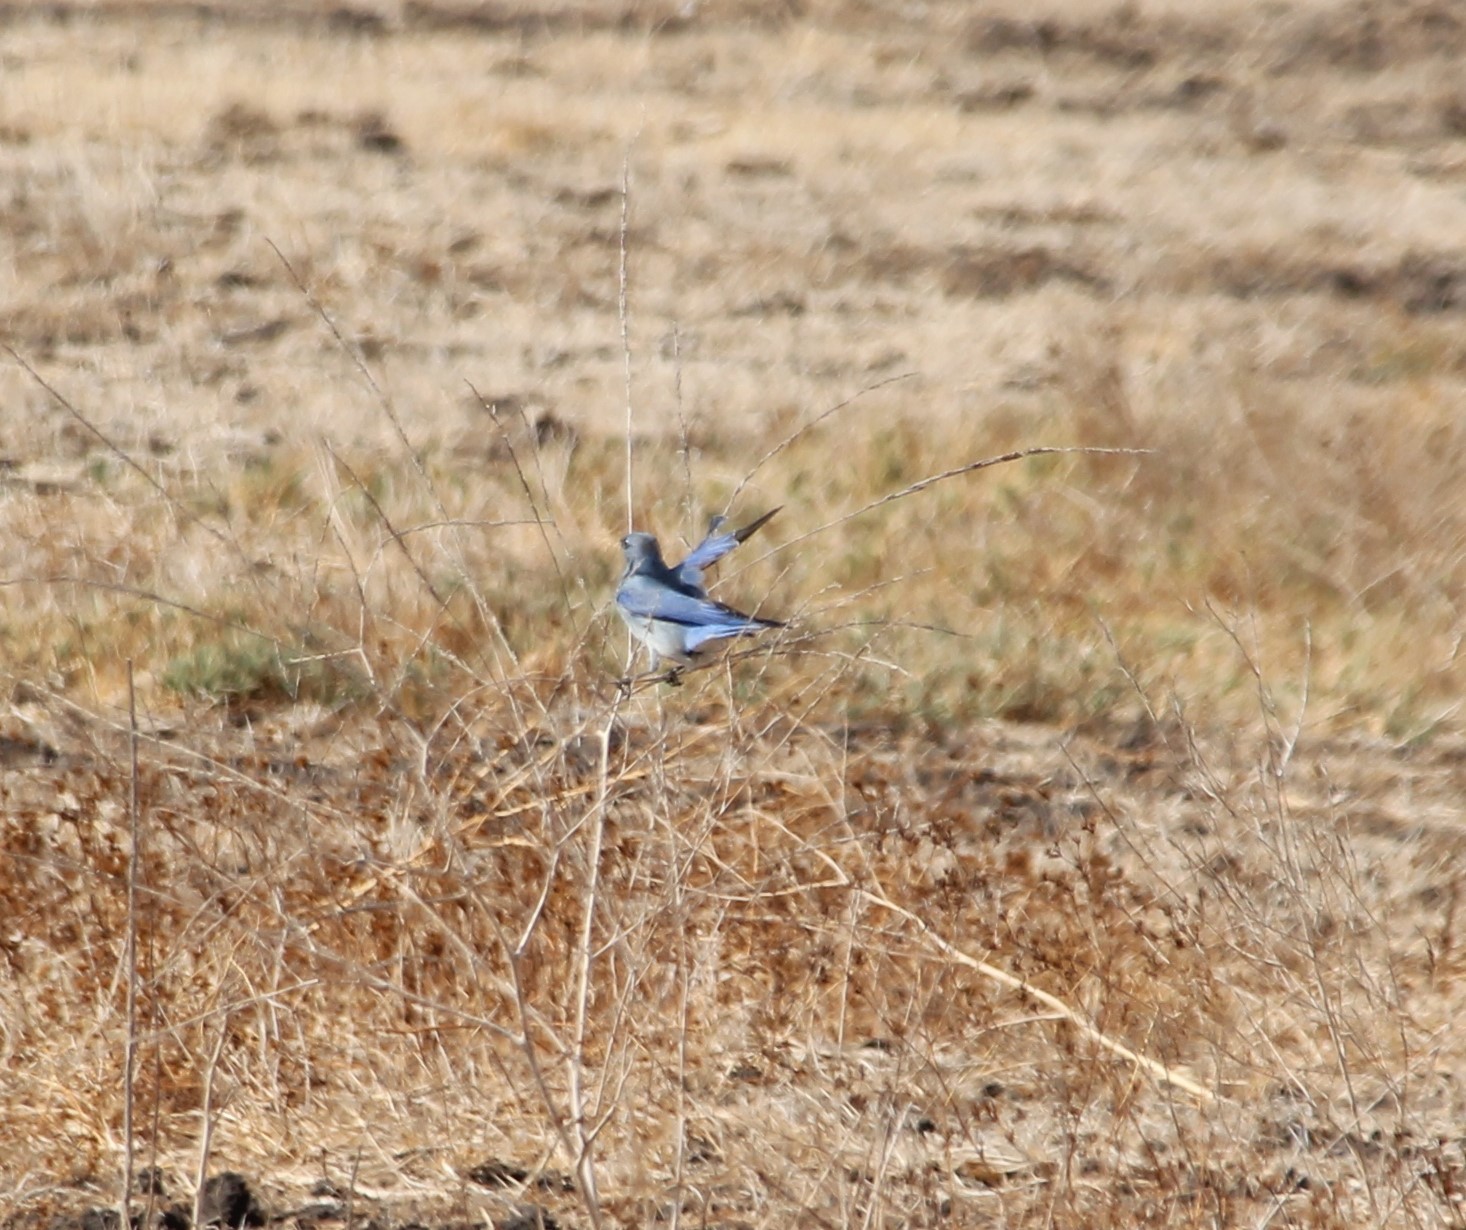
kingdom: Animalia
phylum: Chordata
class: Aves
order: Passeriformes
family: Turdidae
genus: Sialia
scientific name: Sialia currucoides
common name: Mountain bluebird
